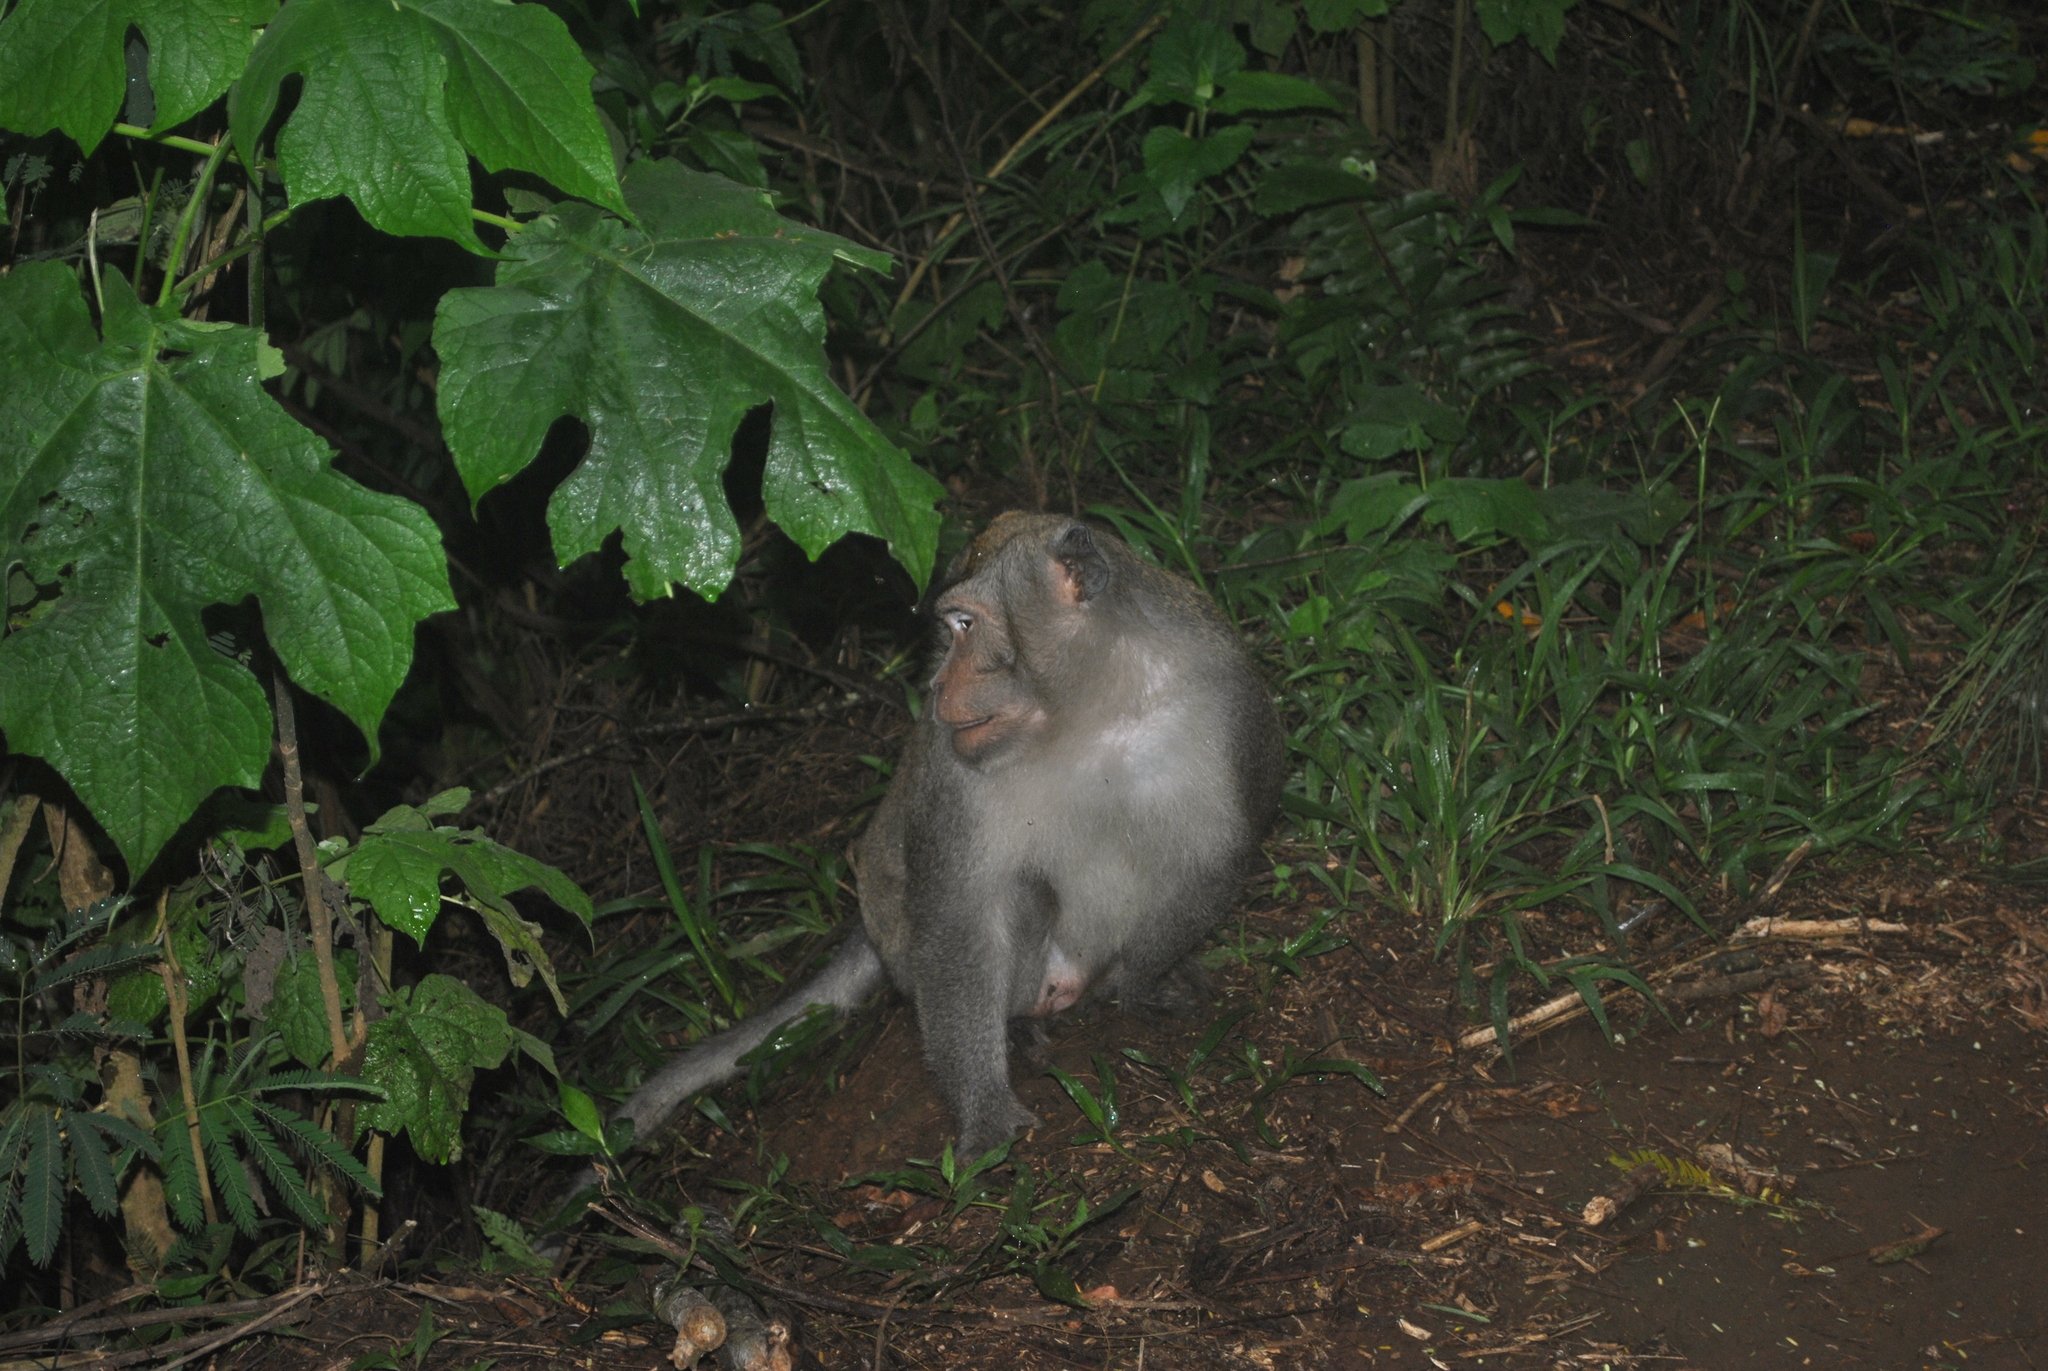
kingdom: Animalia
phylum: Chordata
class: Mammalia
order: Primates
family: Cercopithecidae
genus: Macaca
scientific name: Macaca fascicularis
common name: Crab-eating macaque
